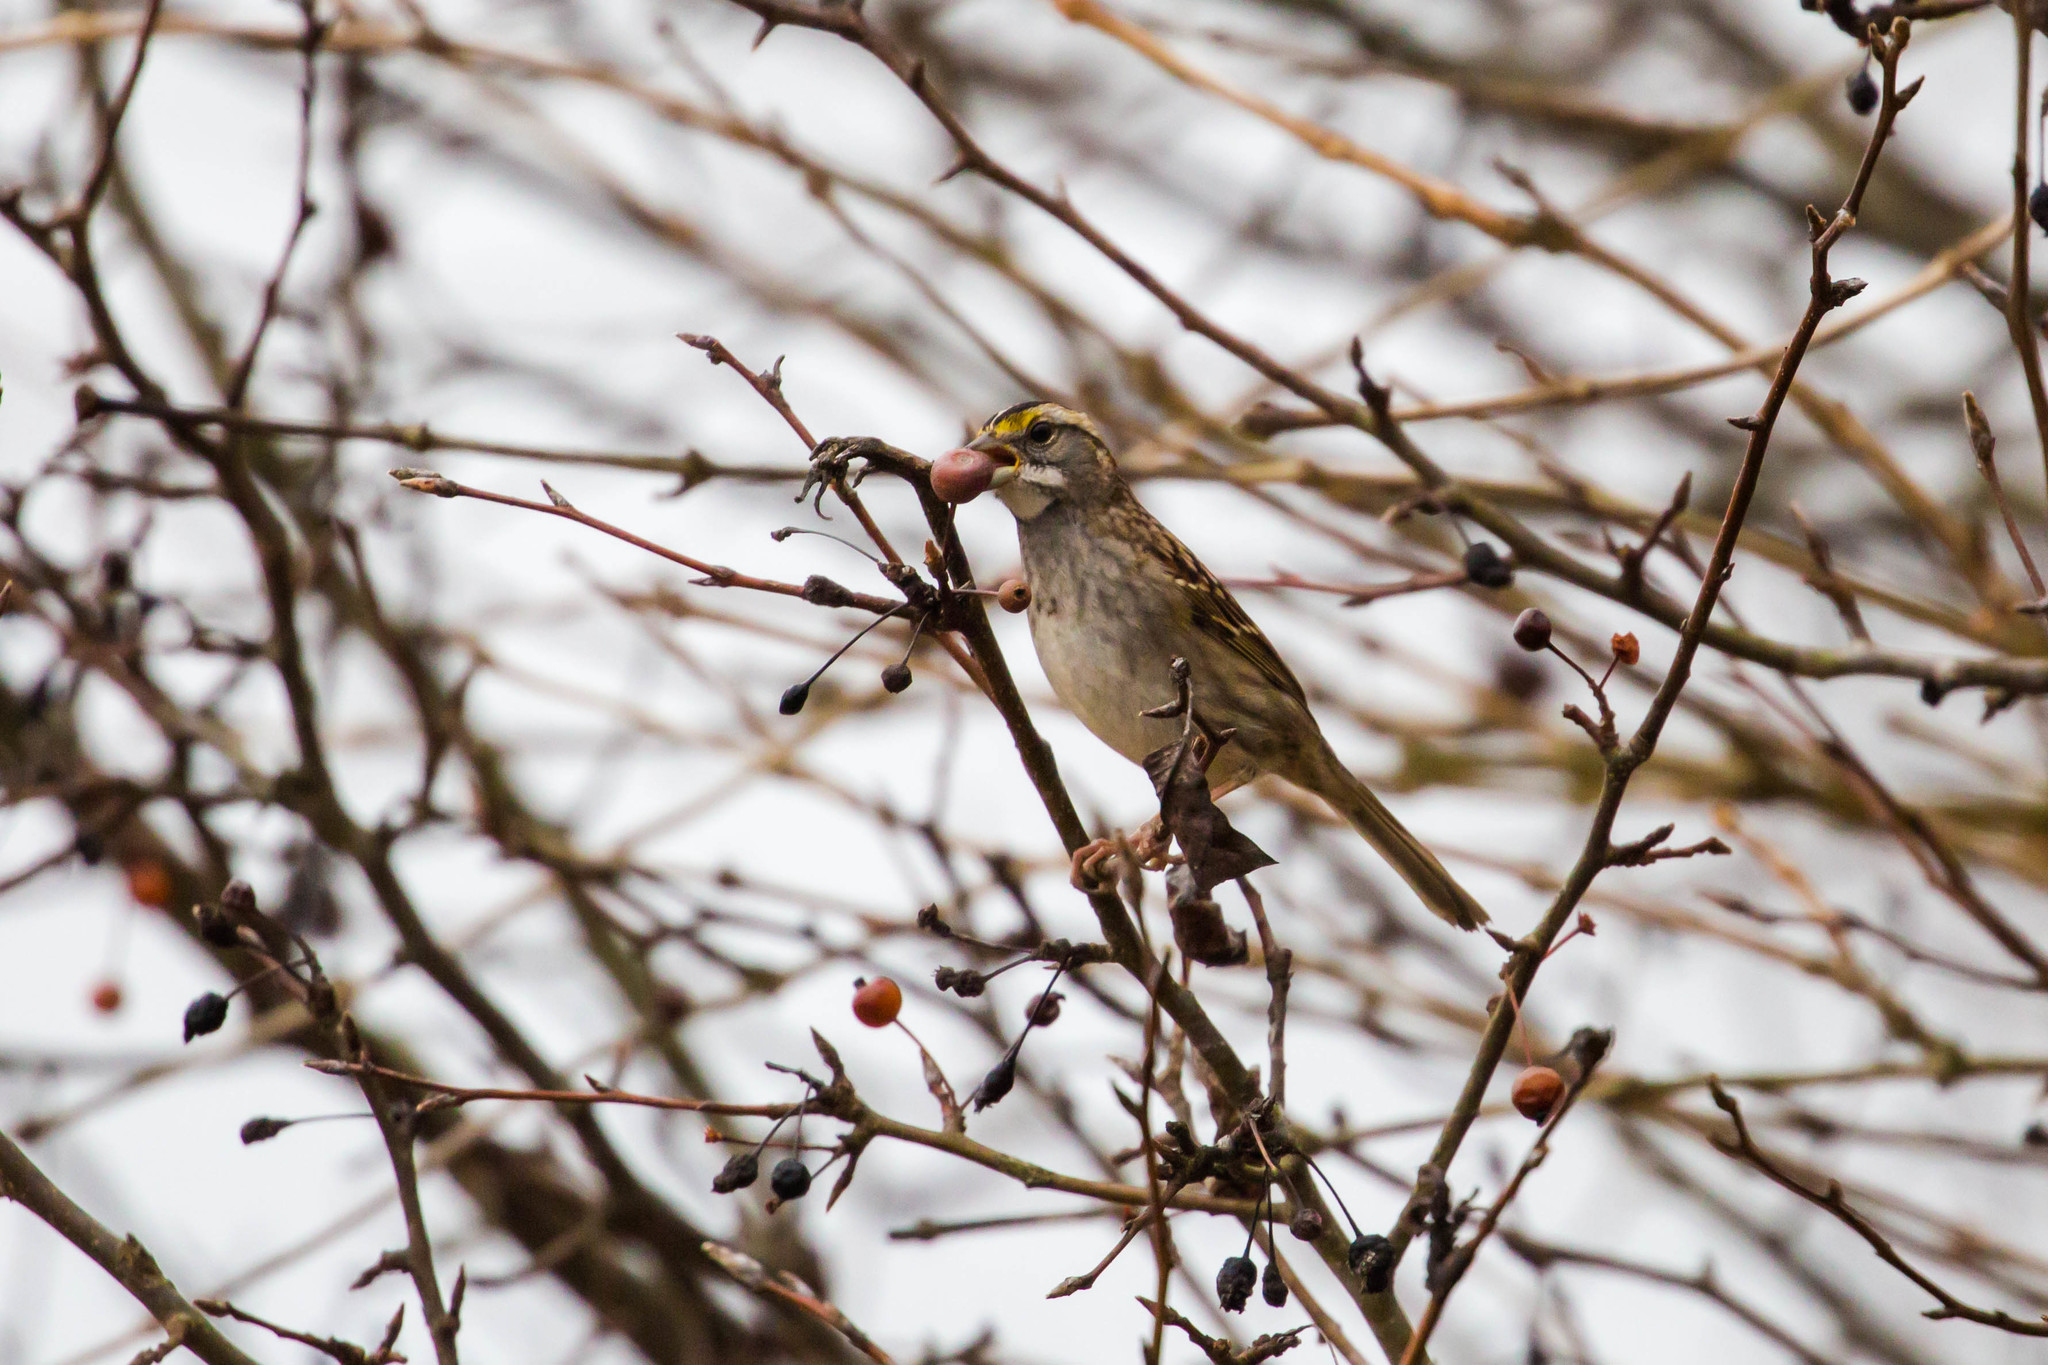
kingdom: Animalia
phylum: Chordata
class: Aves
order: Passeriformes
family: Passerellidae
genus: Zonotrichia
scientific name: Zonotrichia albicollis
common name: White-throated sparrow
